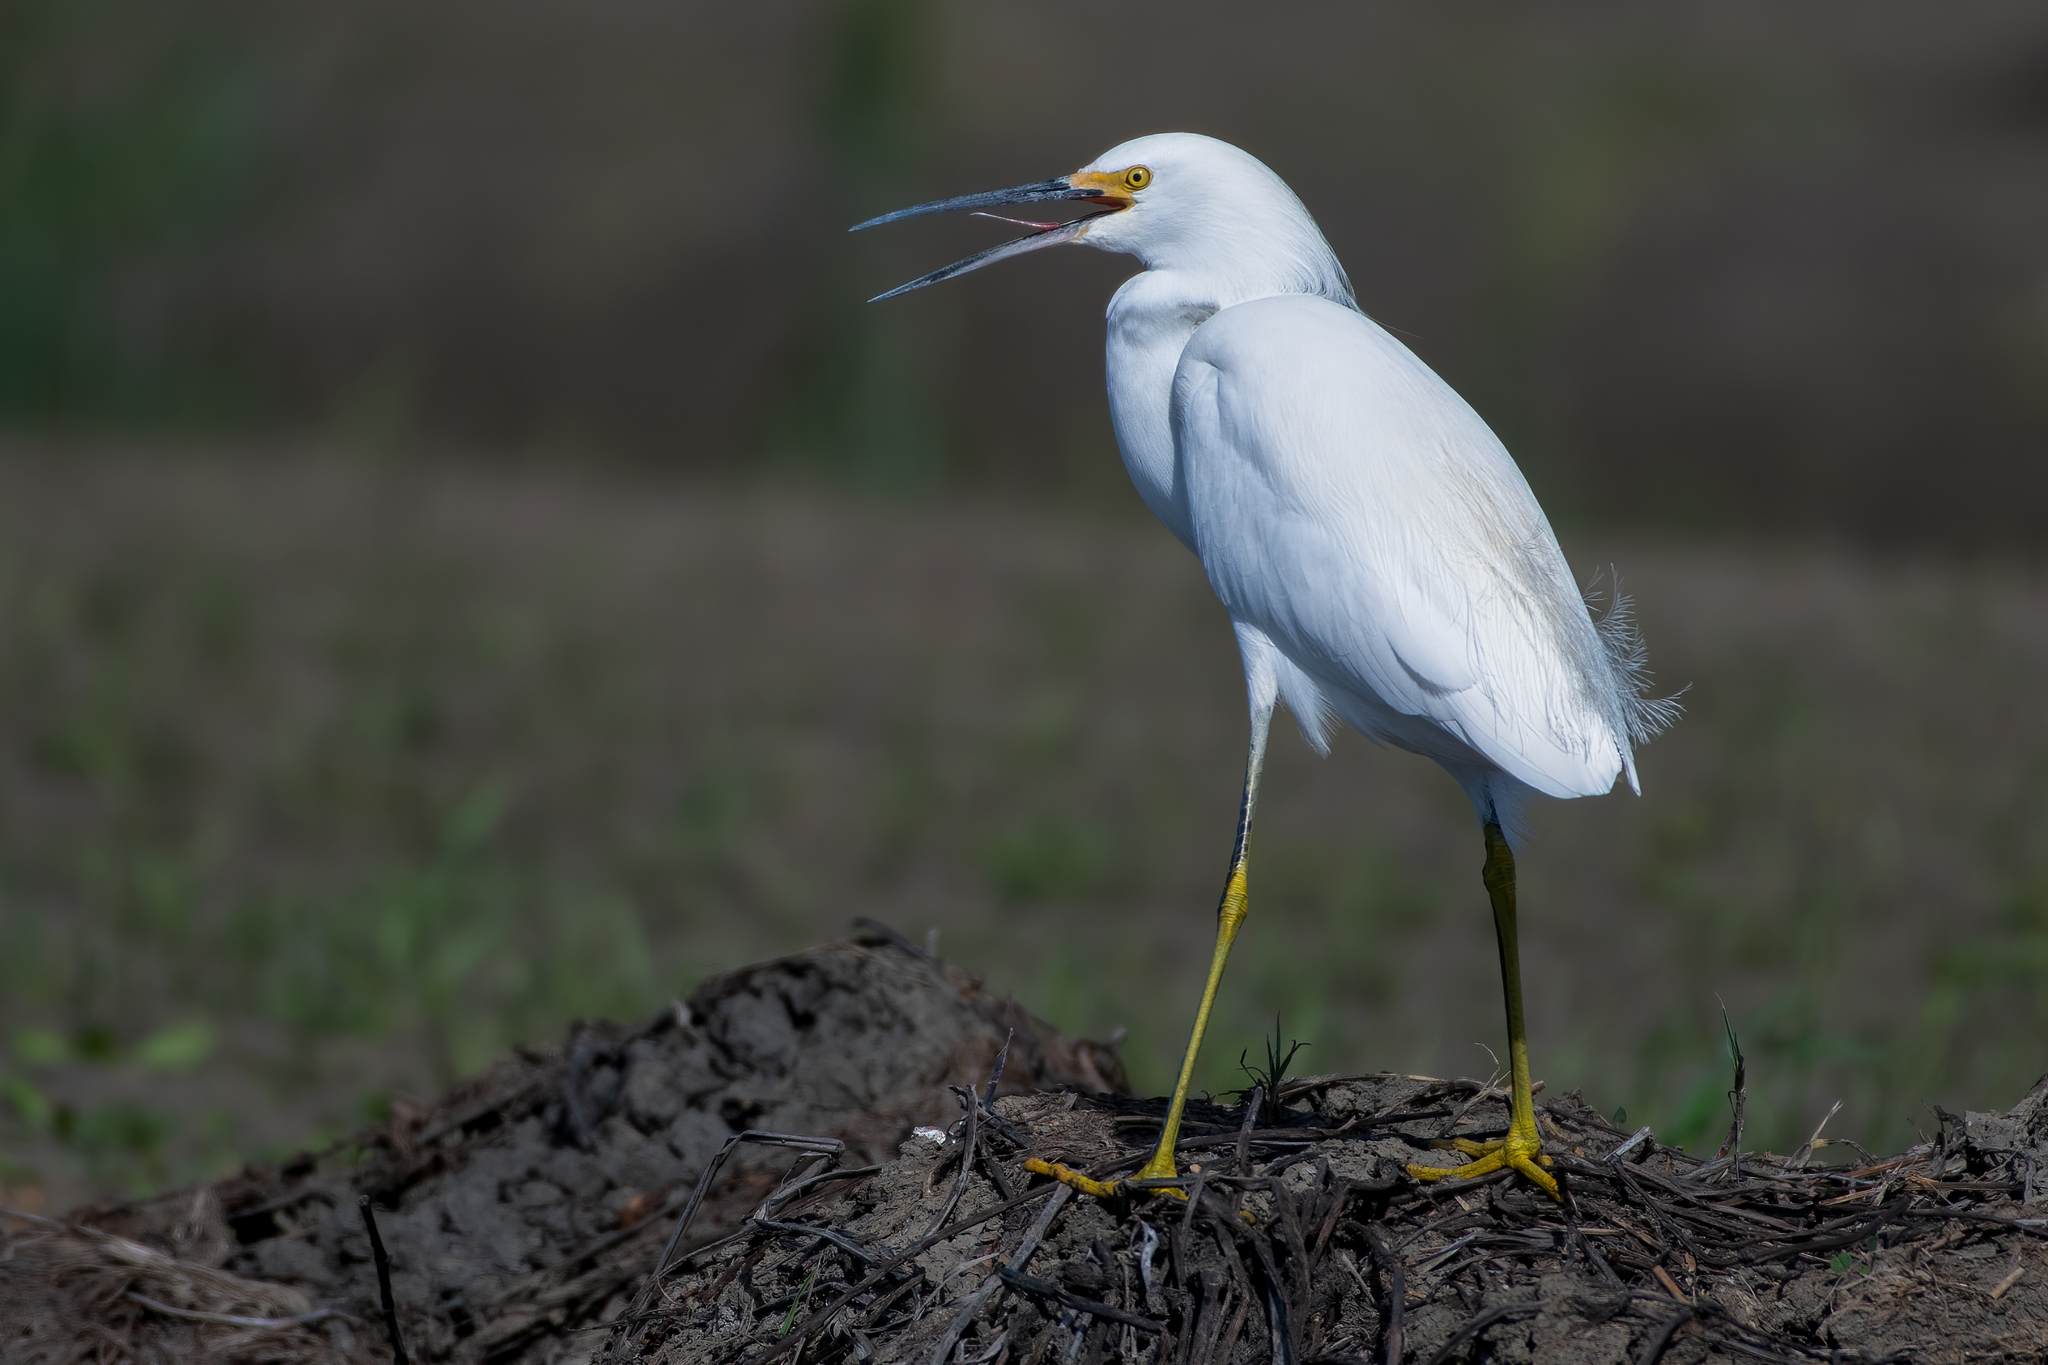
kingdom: Animalia
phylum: Chordata
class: Aves
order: Pelecaniformes
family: Ardeidae
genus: Egretta
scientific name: Egretta thula
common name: Snowy egret
